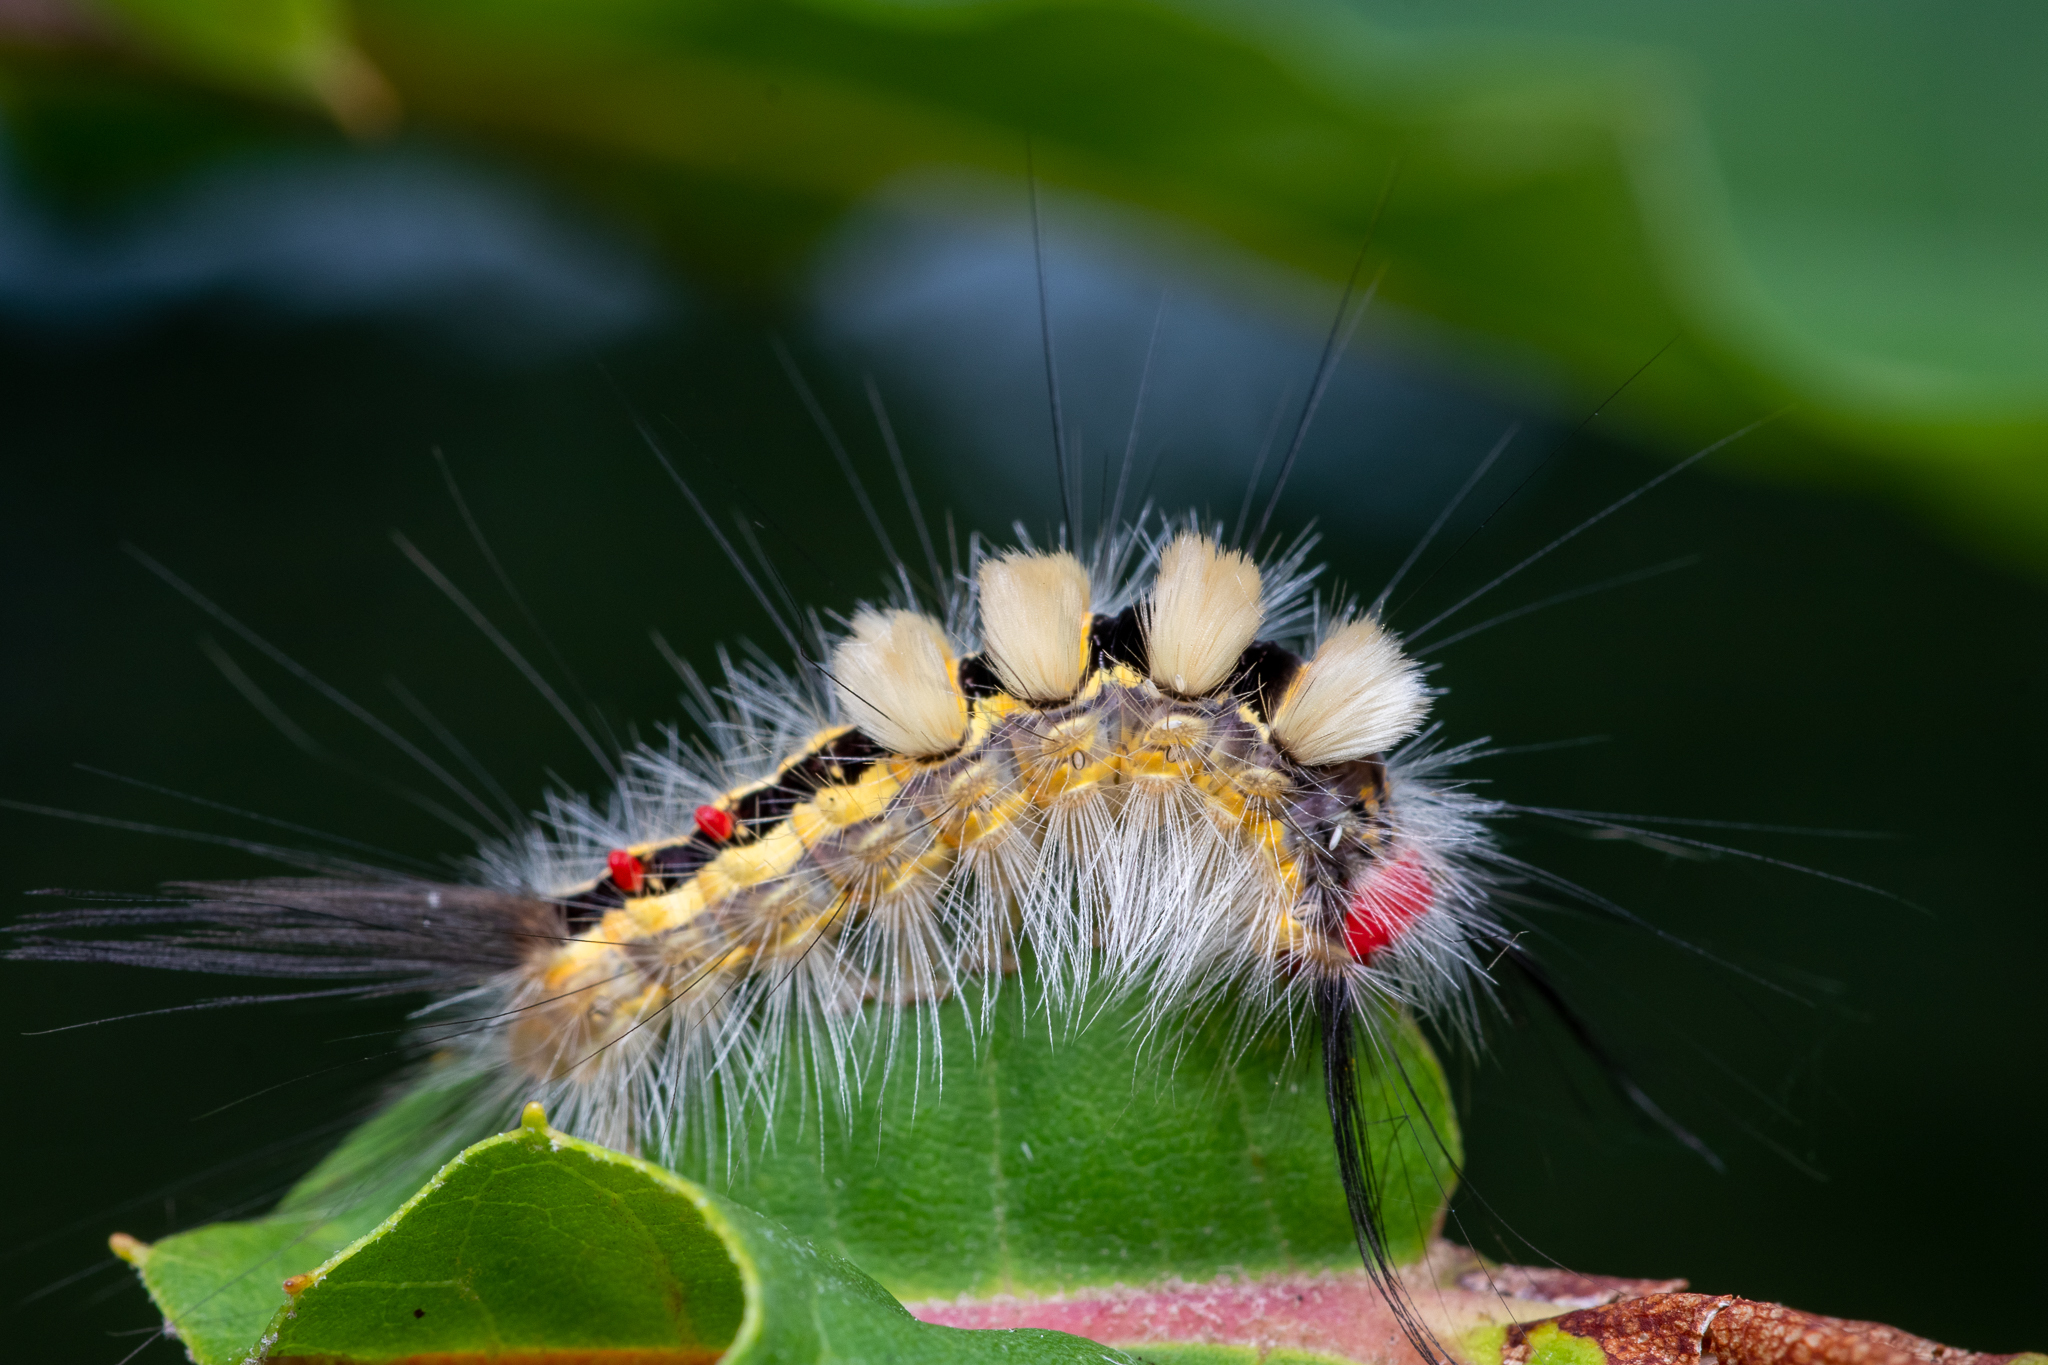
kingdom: Animalia
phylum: Arthropoda
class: Insecta
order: Lepidoptera
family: Erebidae
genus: Orgyia
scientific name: Orgyia leucostigma
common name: White-marked tussock moth
